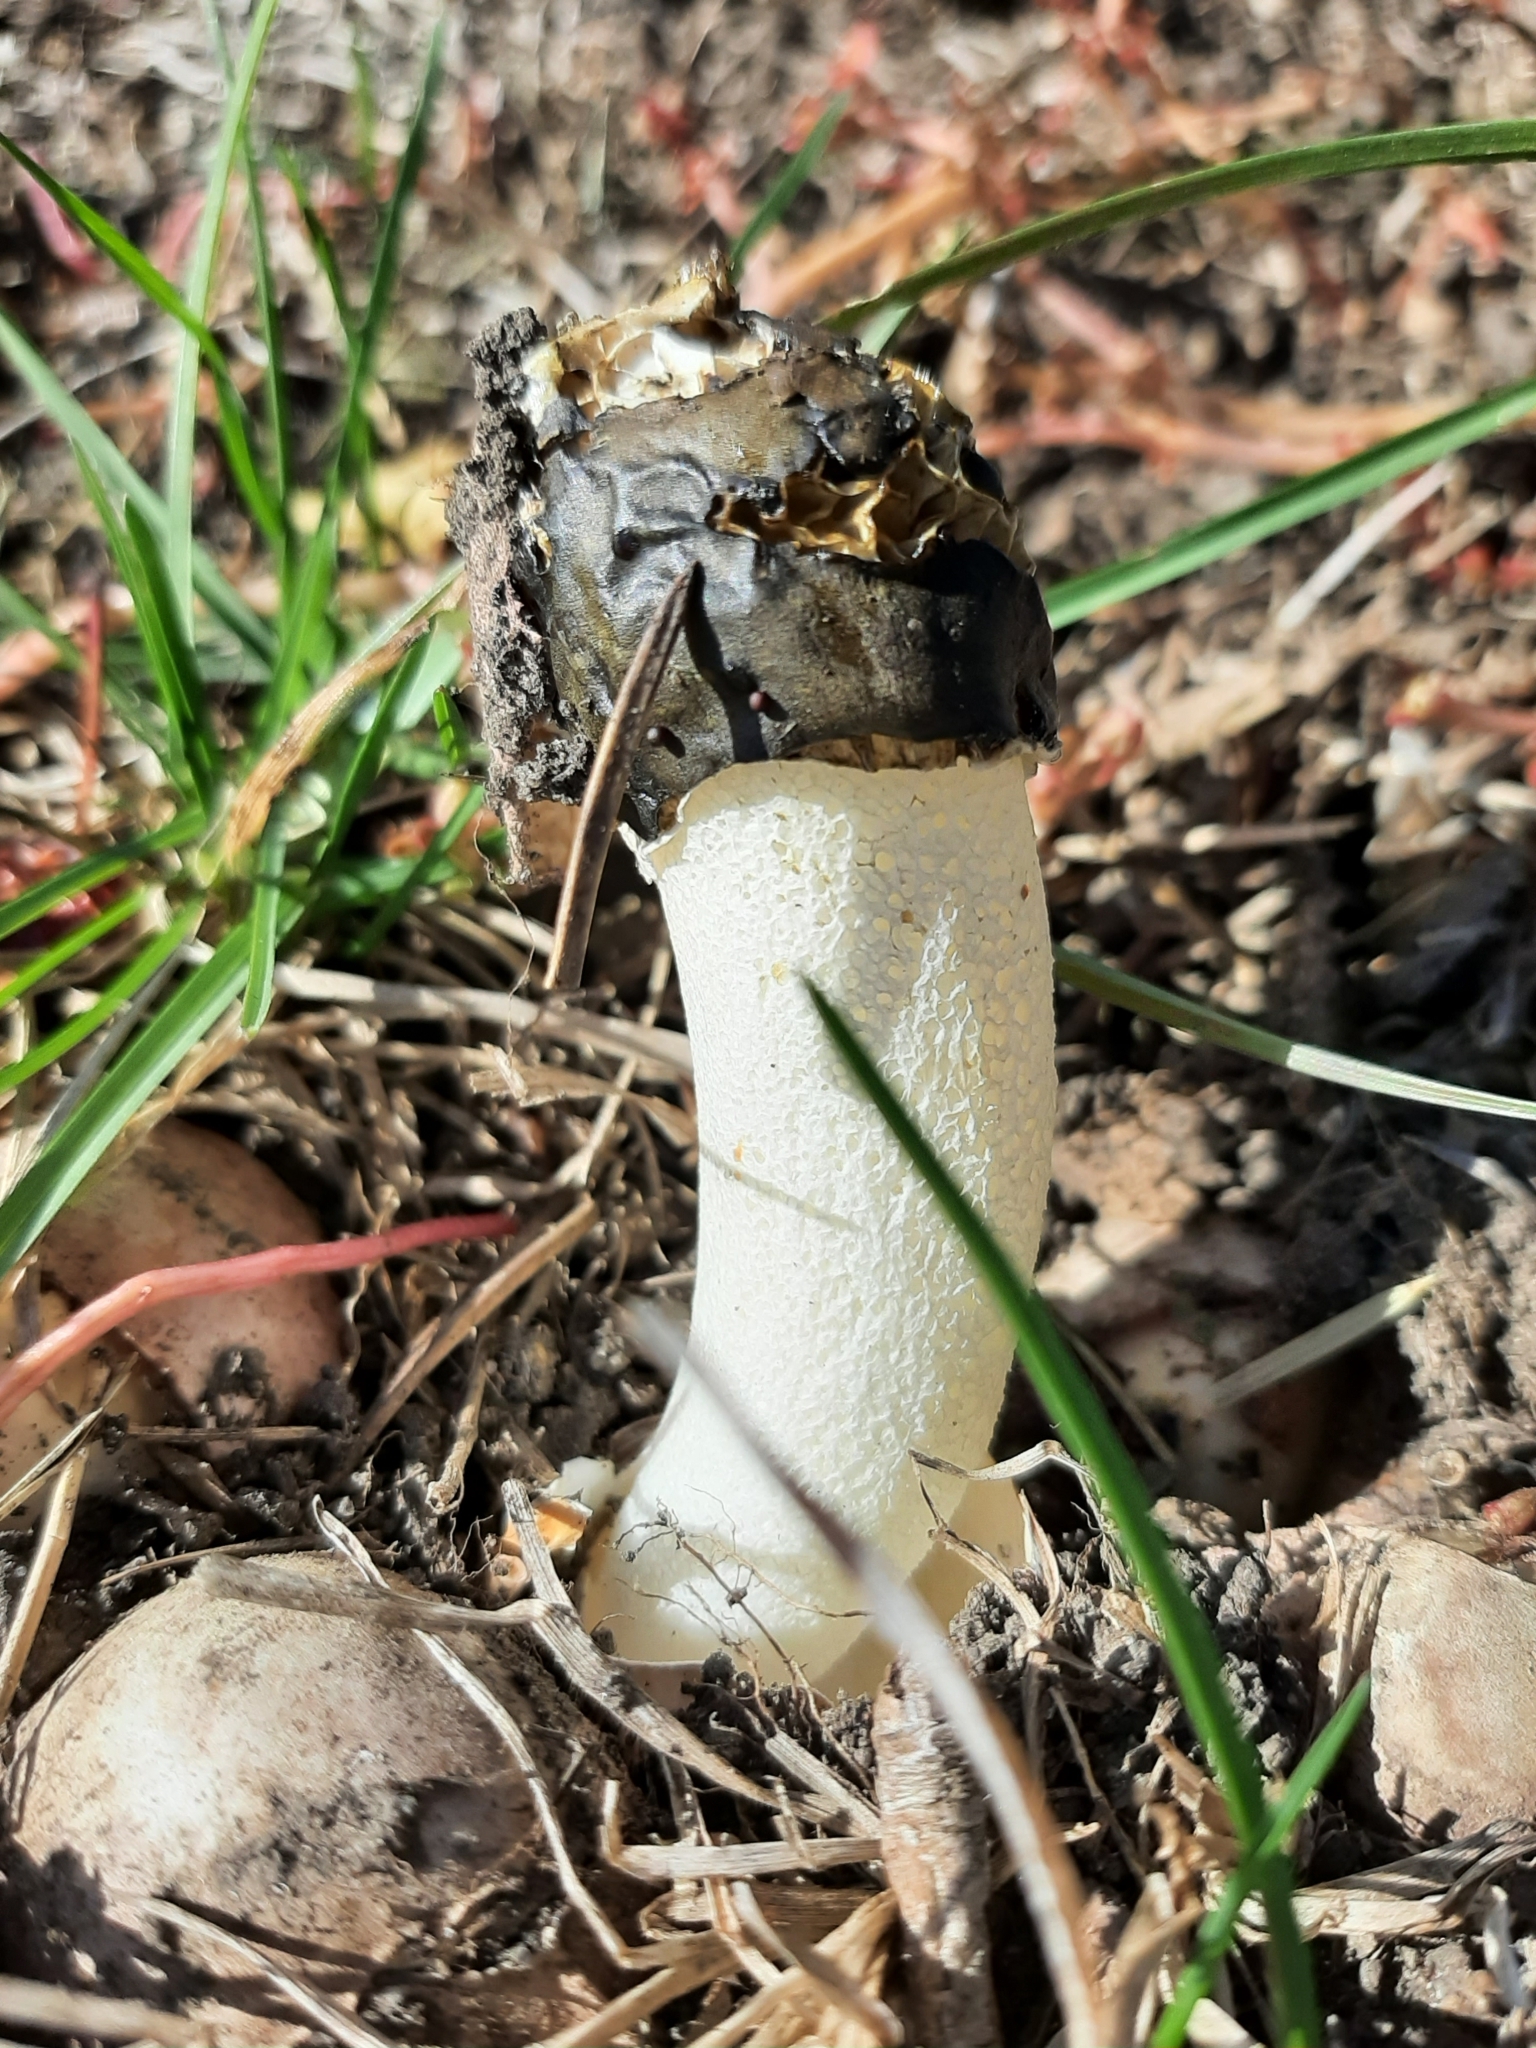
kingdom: Fungi
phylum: Basidiomycota
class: Agaricomycetes
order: Phallales
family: Phallaceae
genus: Phallus
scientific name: Phallus impudicus
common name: Common stinkhorn
